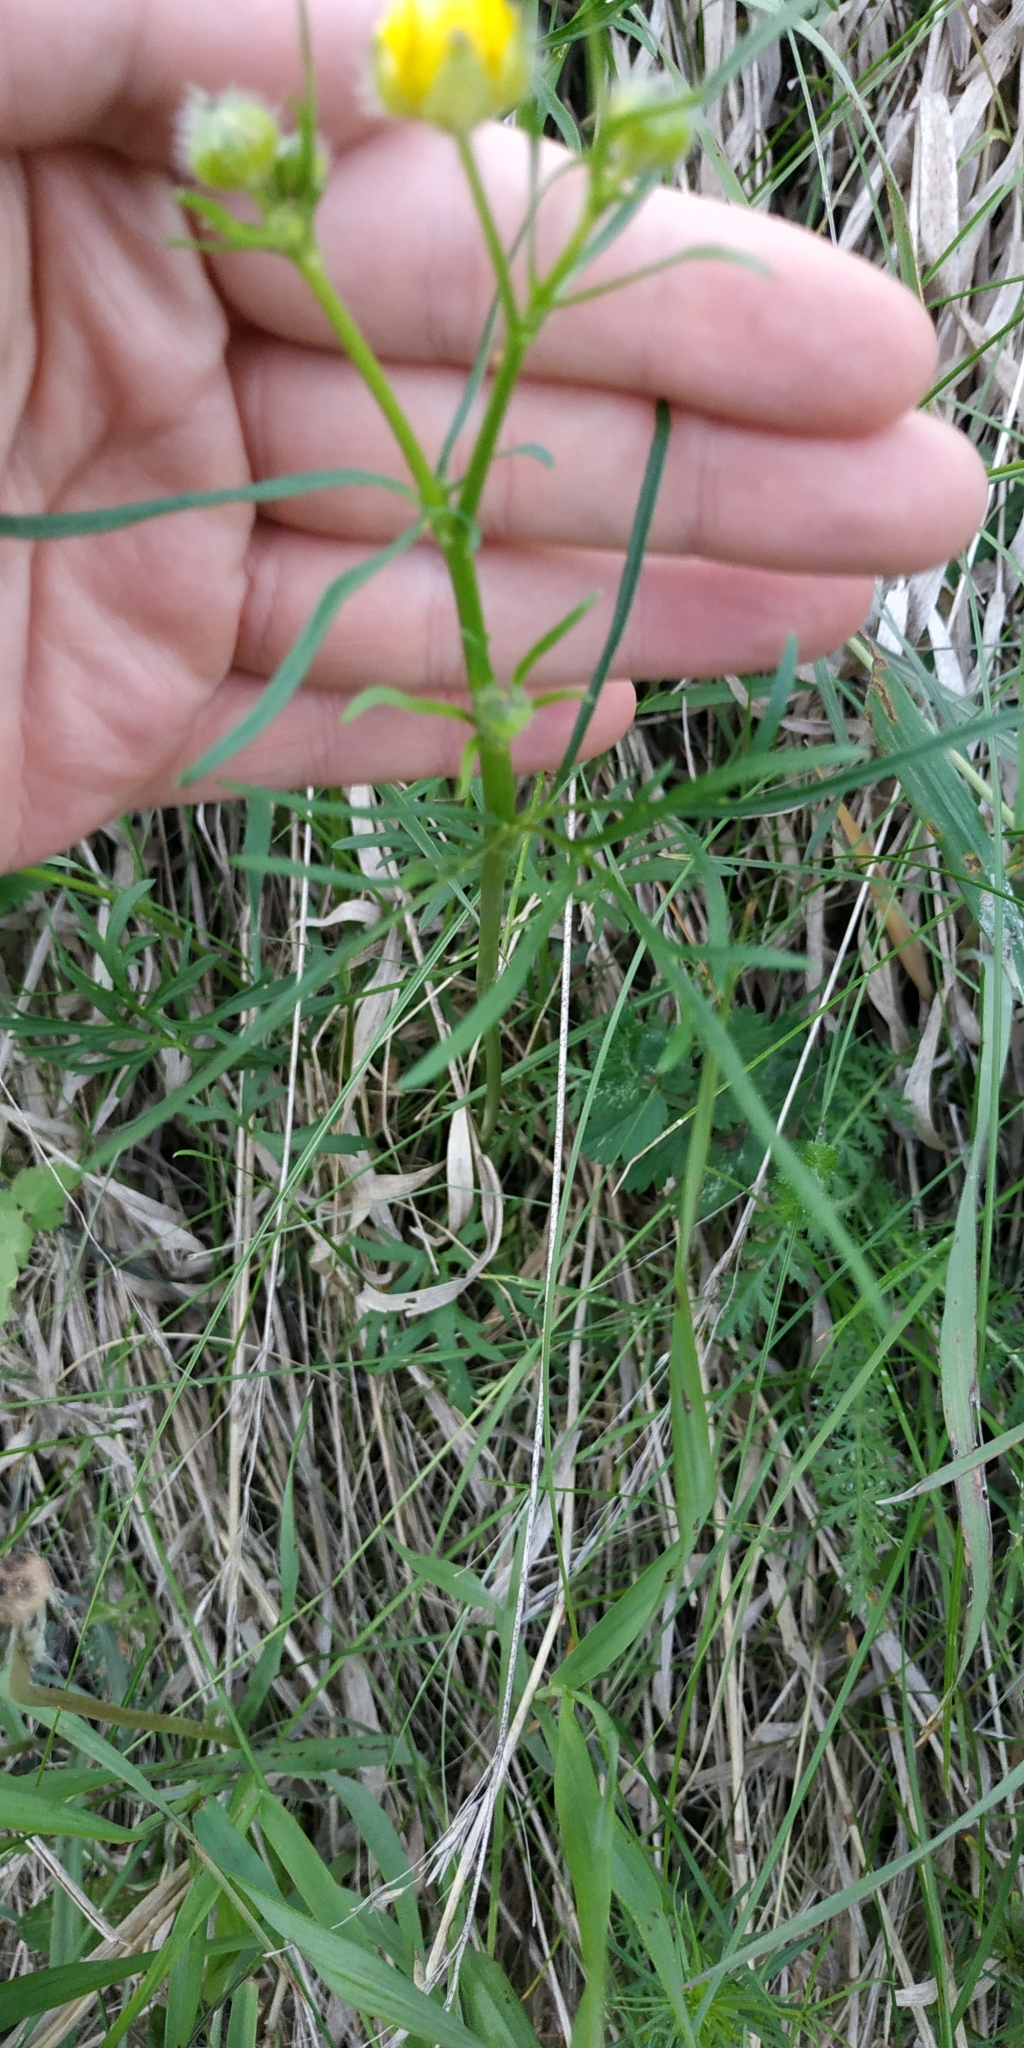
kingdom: Plantae
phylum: Tracheophyta
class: Magnoliopsida
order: Ranunculales
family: Ranunculaceae
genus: Ranunculus
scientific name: Ranunculus polyanthemos
